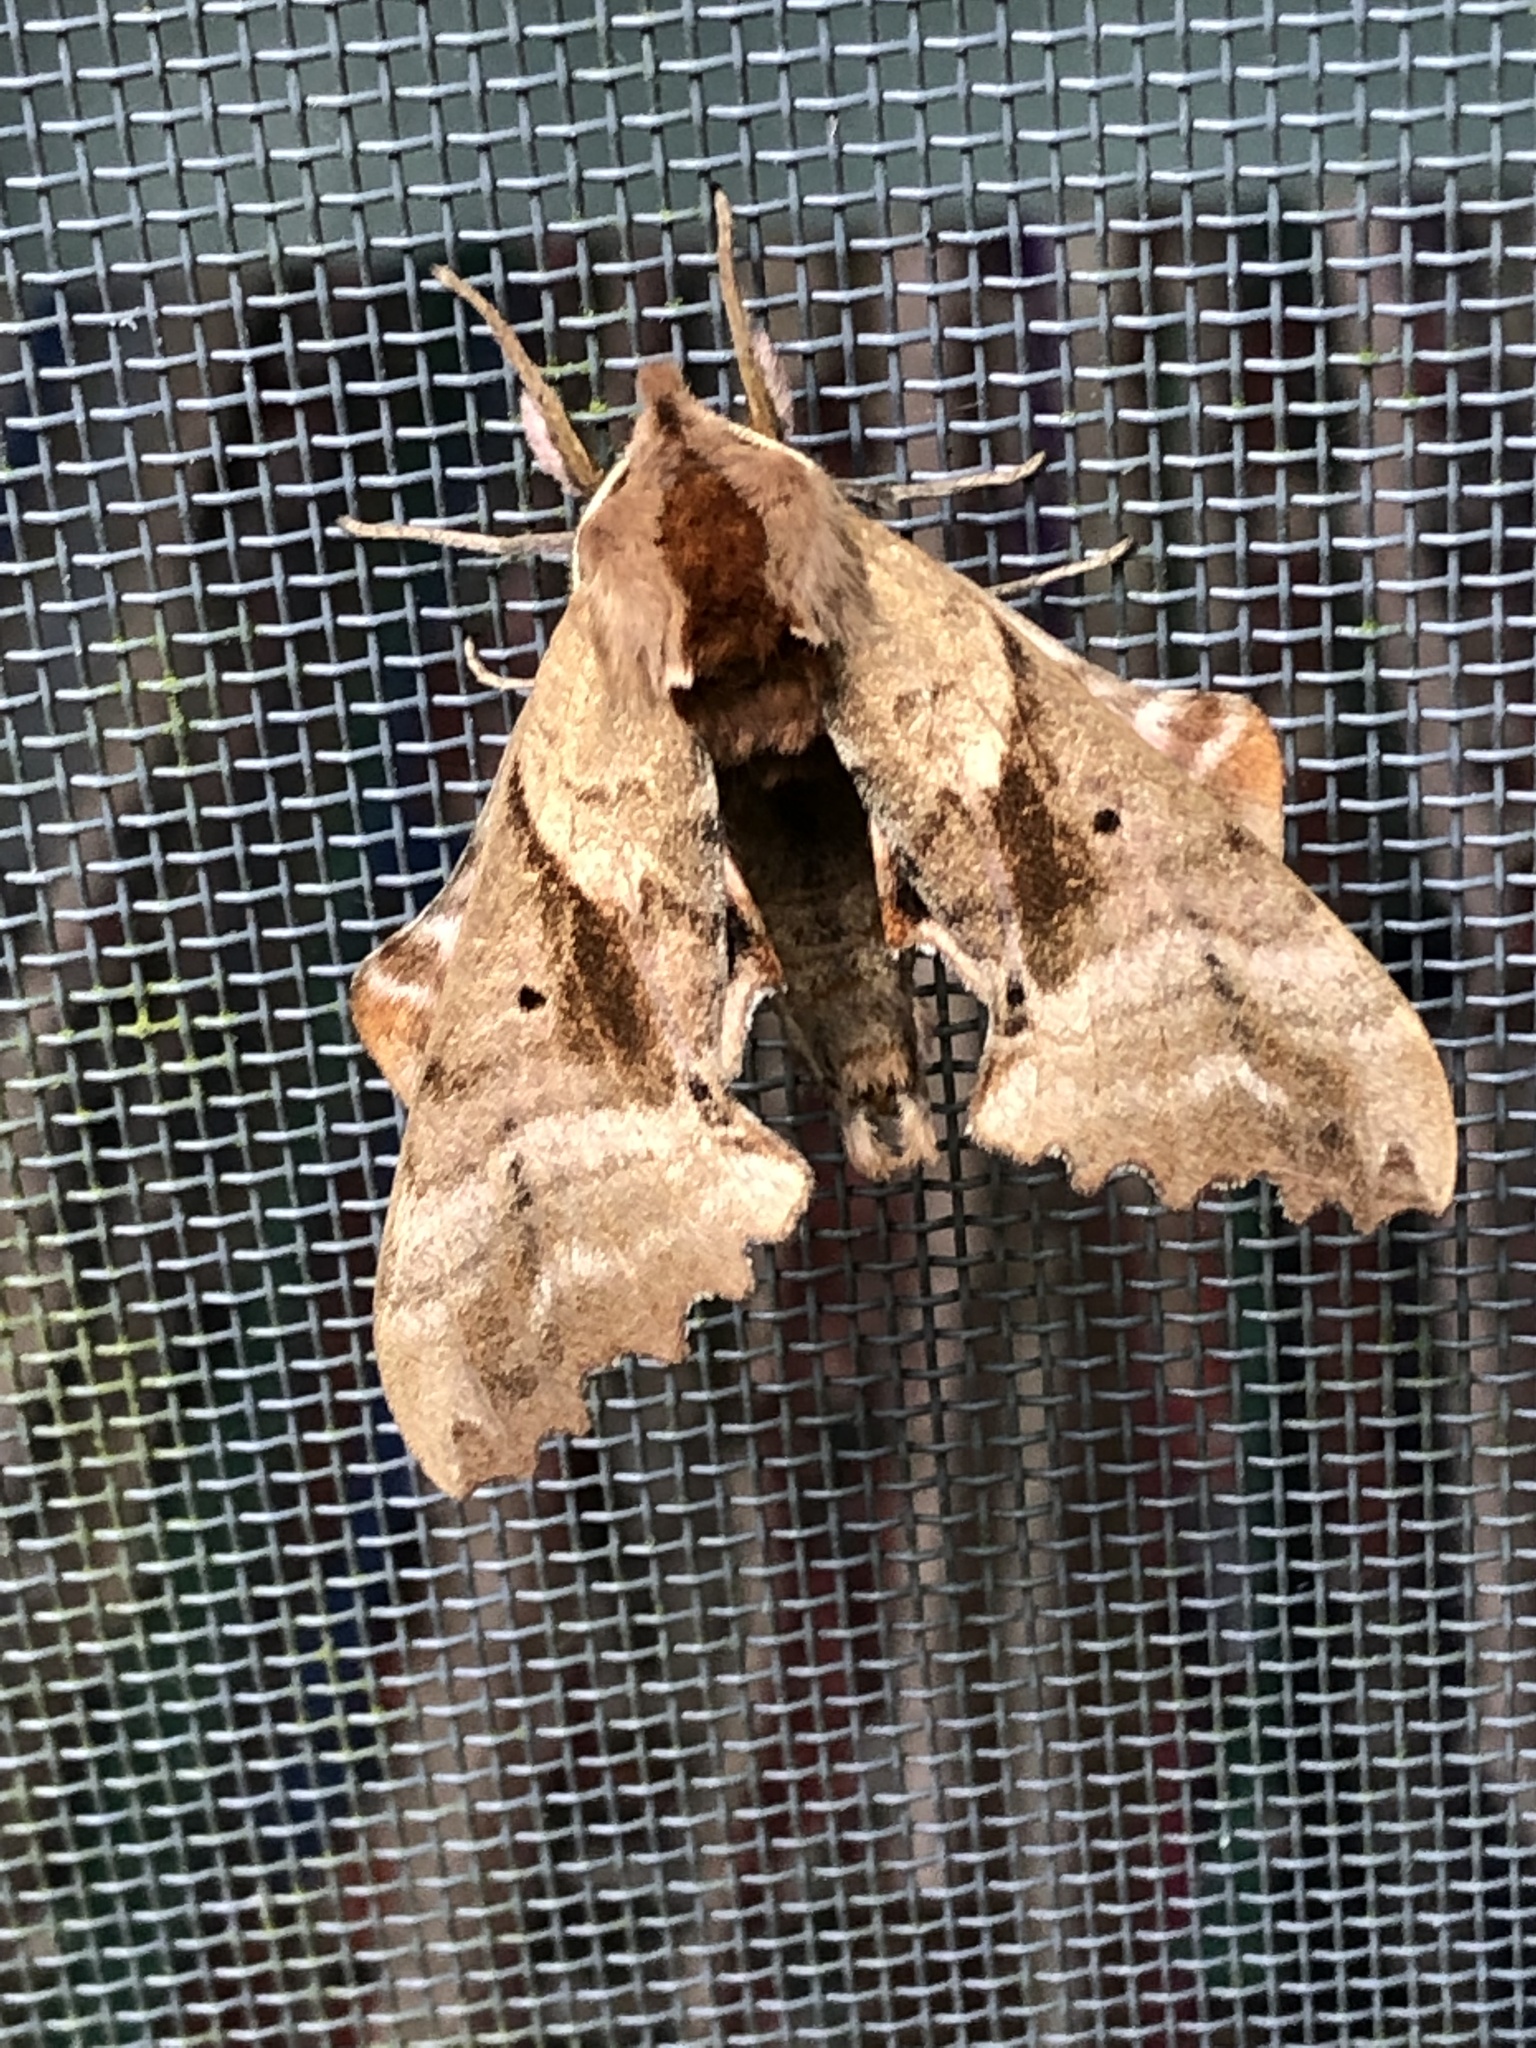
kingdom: Animalia
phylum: Arthropoda
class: Insecta
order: Lepidoptera
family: Sphingidae
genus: Paonias
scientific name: Paonias excaecata
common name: Blind-eyed sphinx
